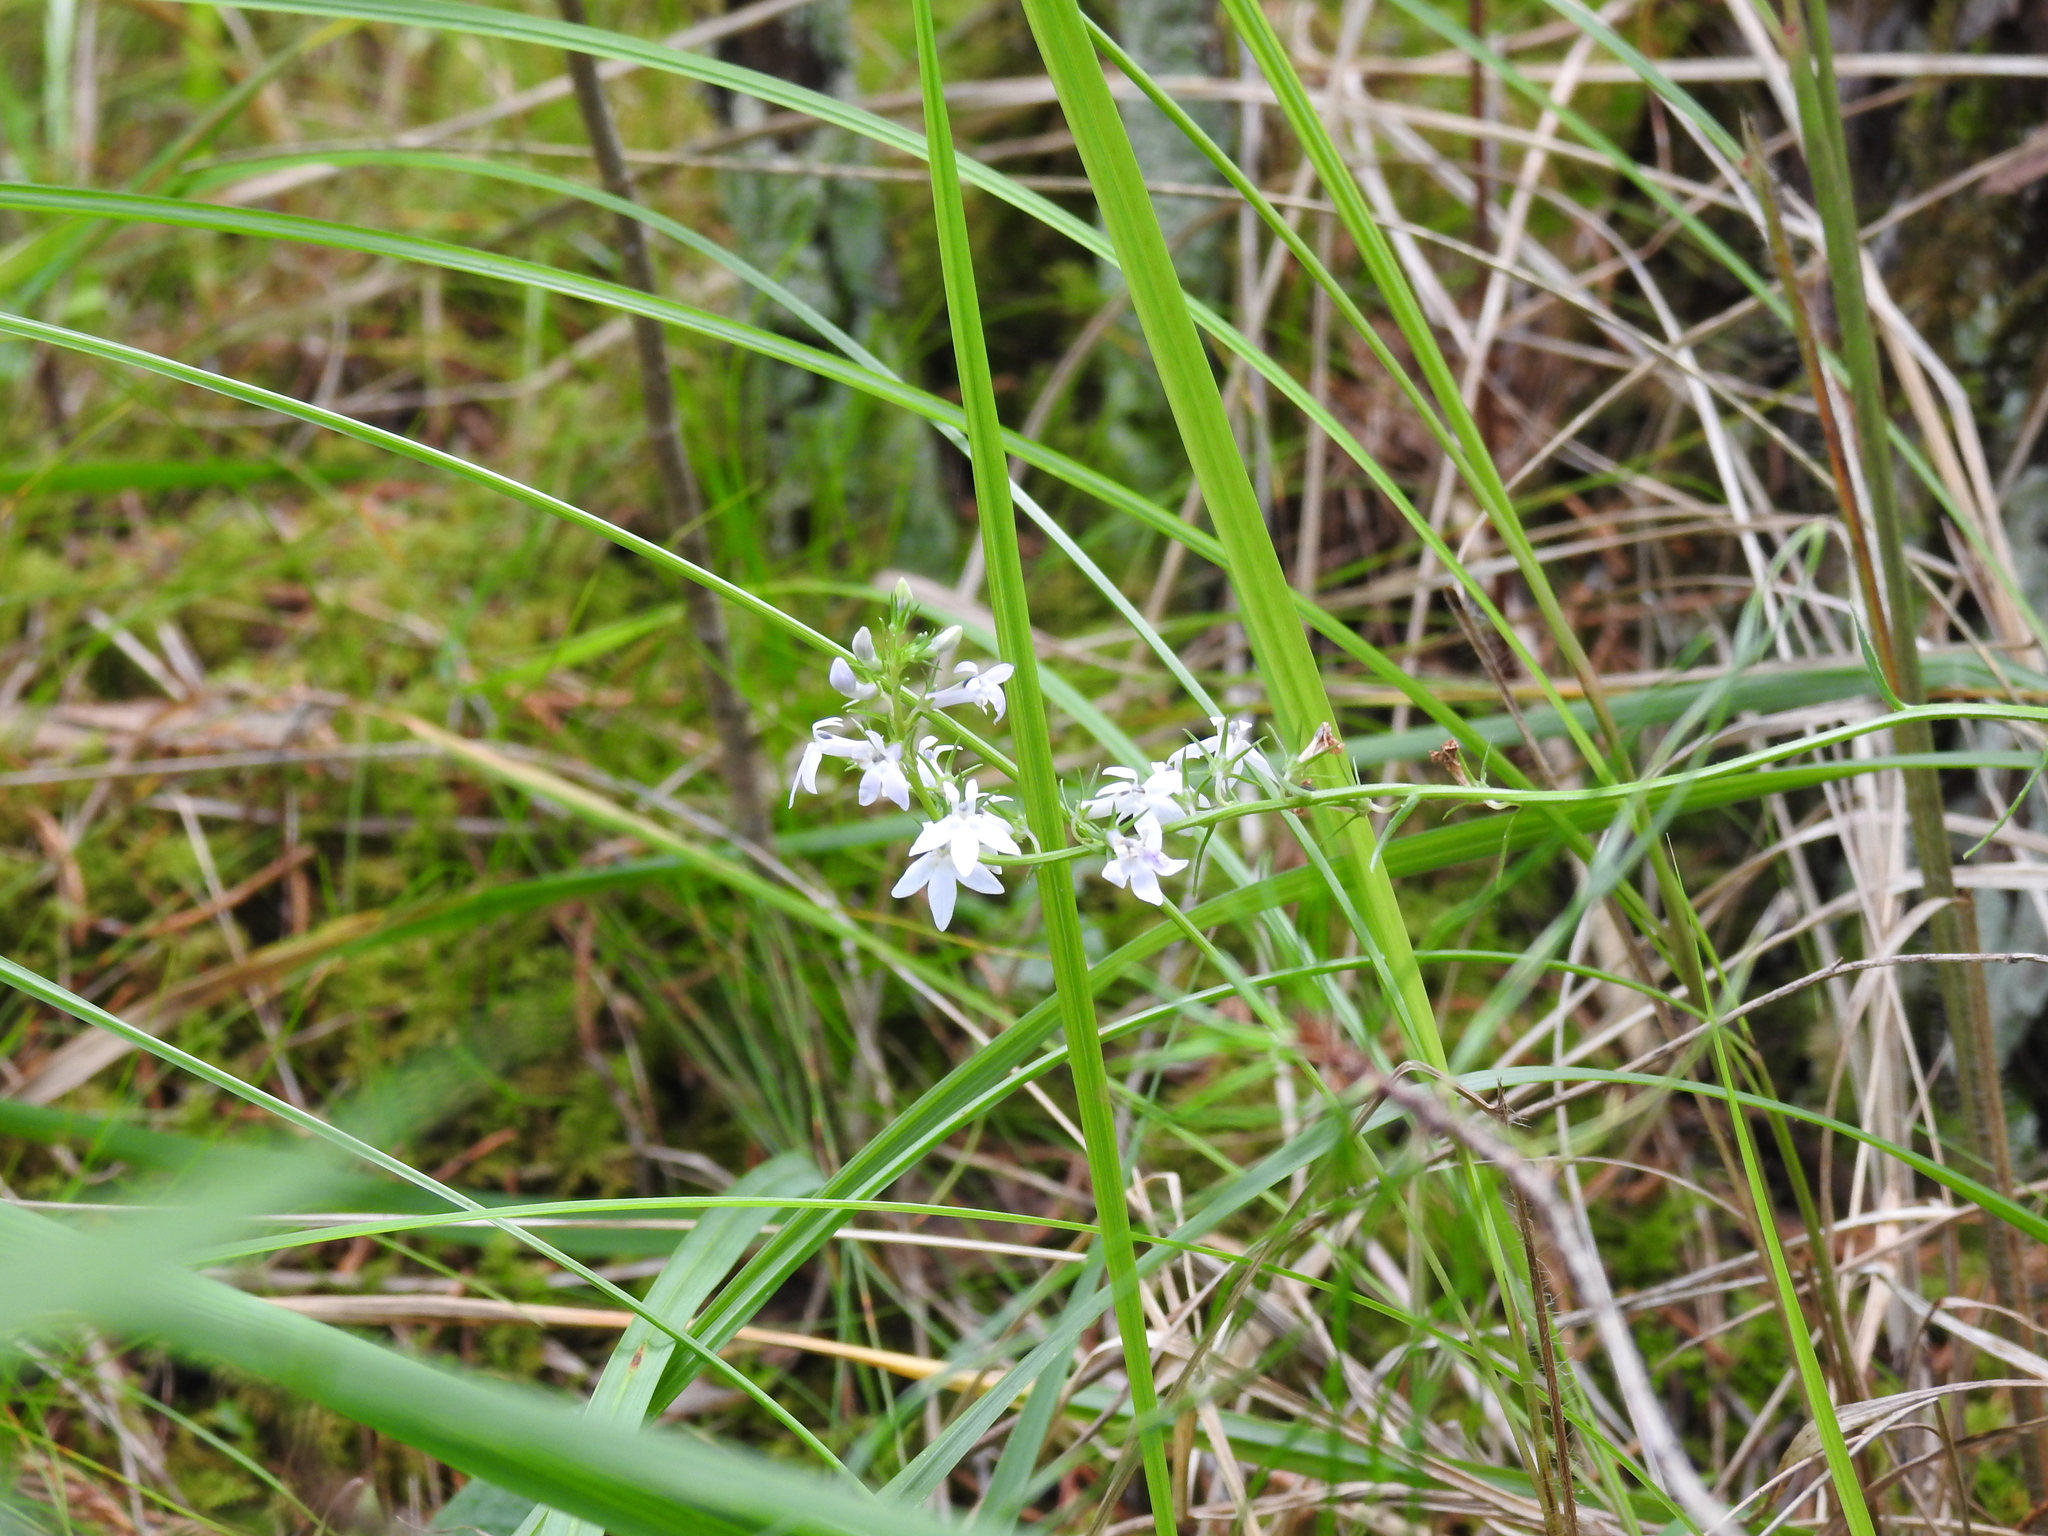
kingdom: Plantae
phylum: Tracheophyta
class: Magnoliopsida
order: Asterales
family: Campanulaceae
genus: Lobelia
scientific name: Lobelia spicata
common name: Pale-spike lobelia
